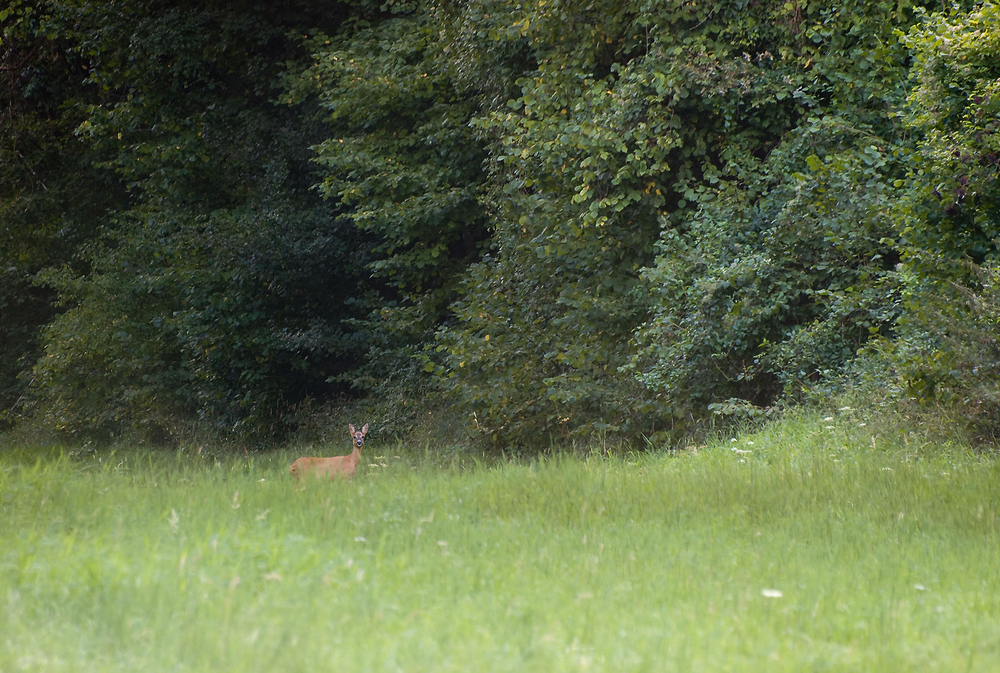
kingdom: Animalia
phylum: Chordata
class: Mammalia
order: Artiodactyla
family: Cervidae
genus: Capreolus
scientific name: Capreolus capreolus
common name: Western roe deer
